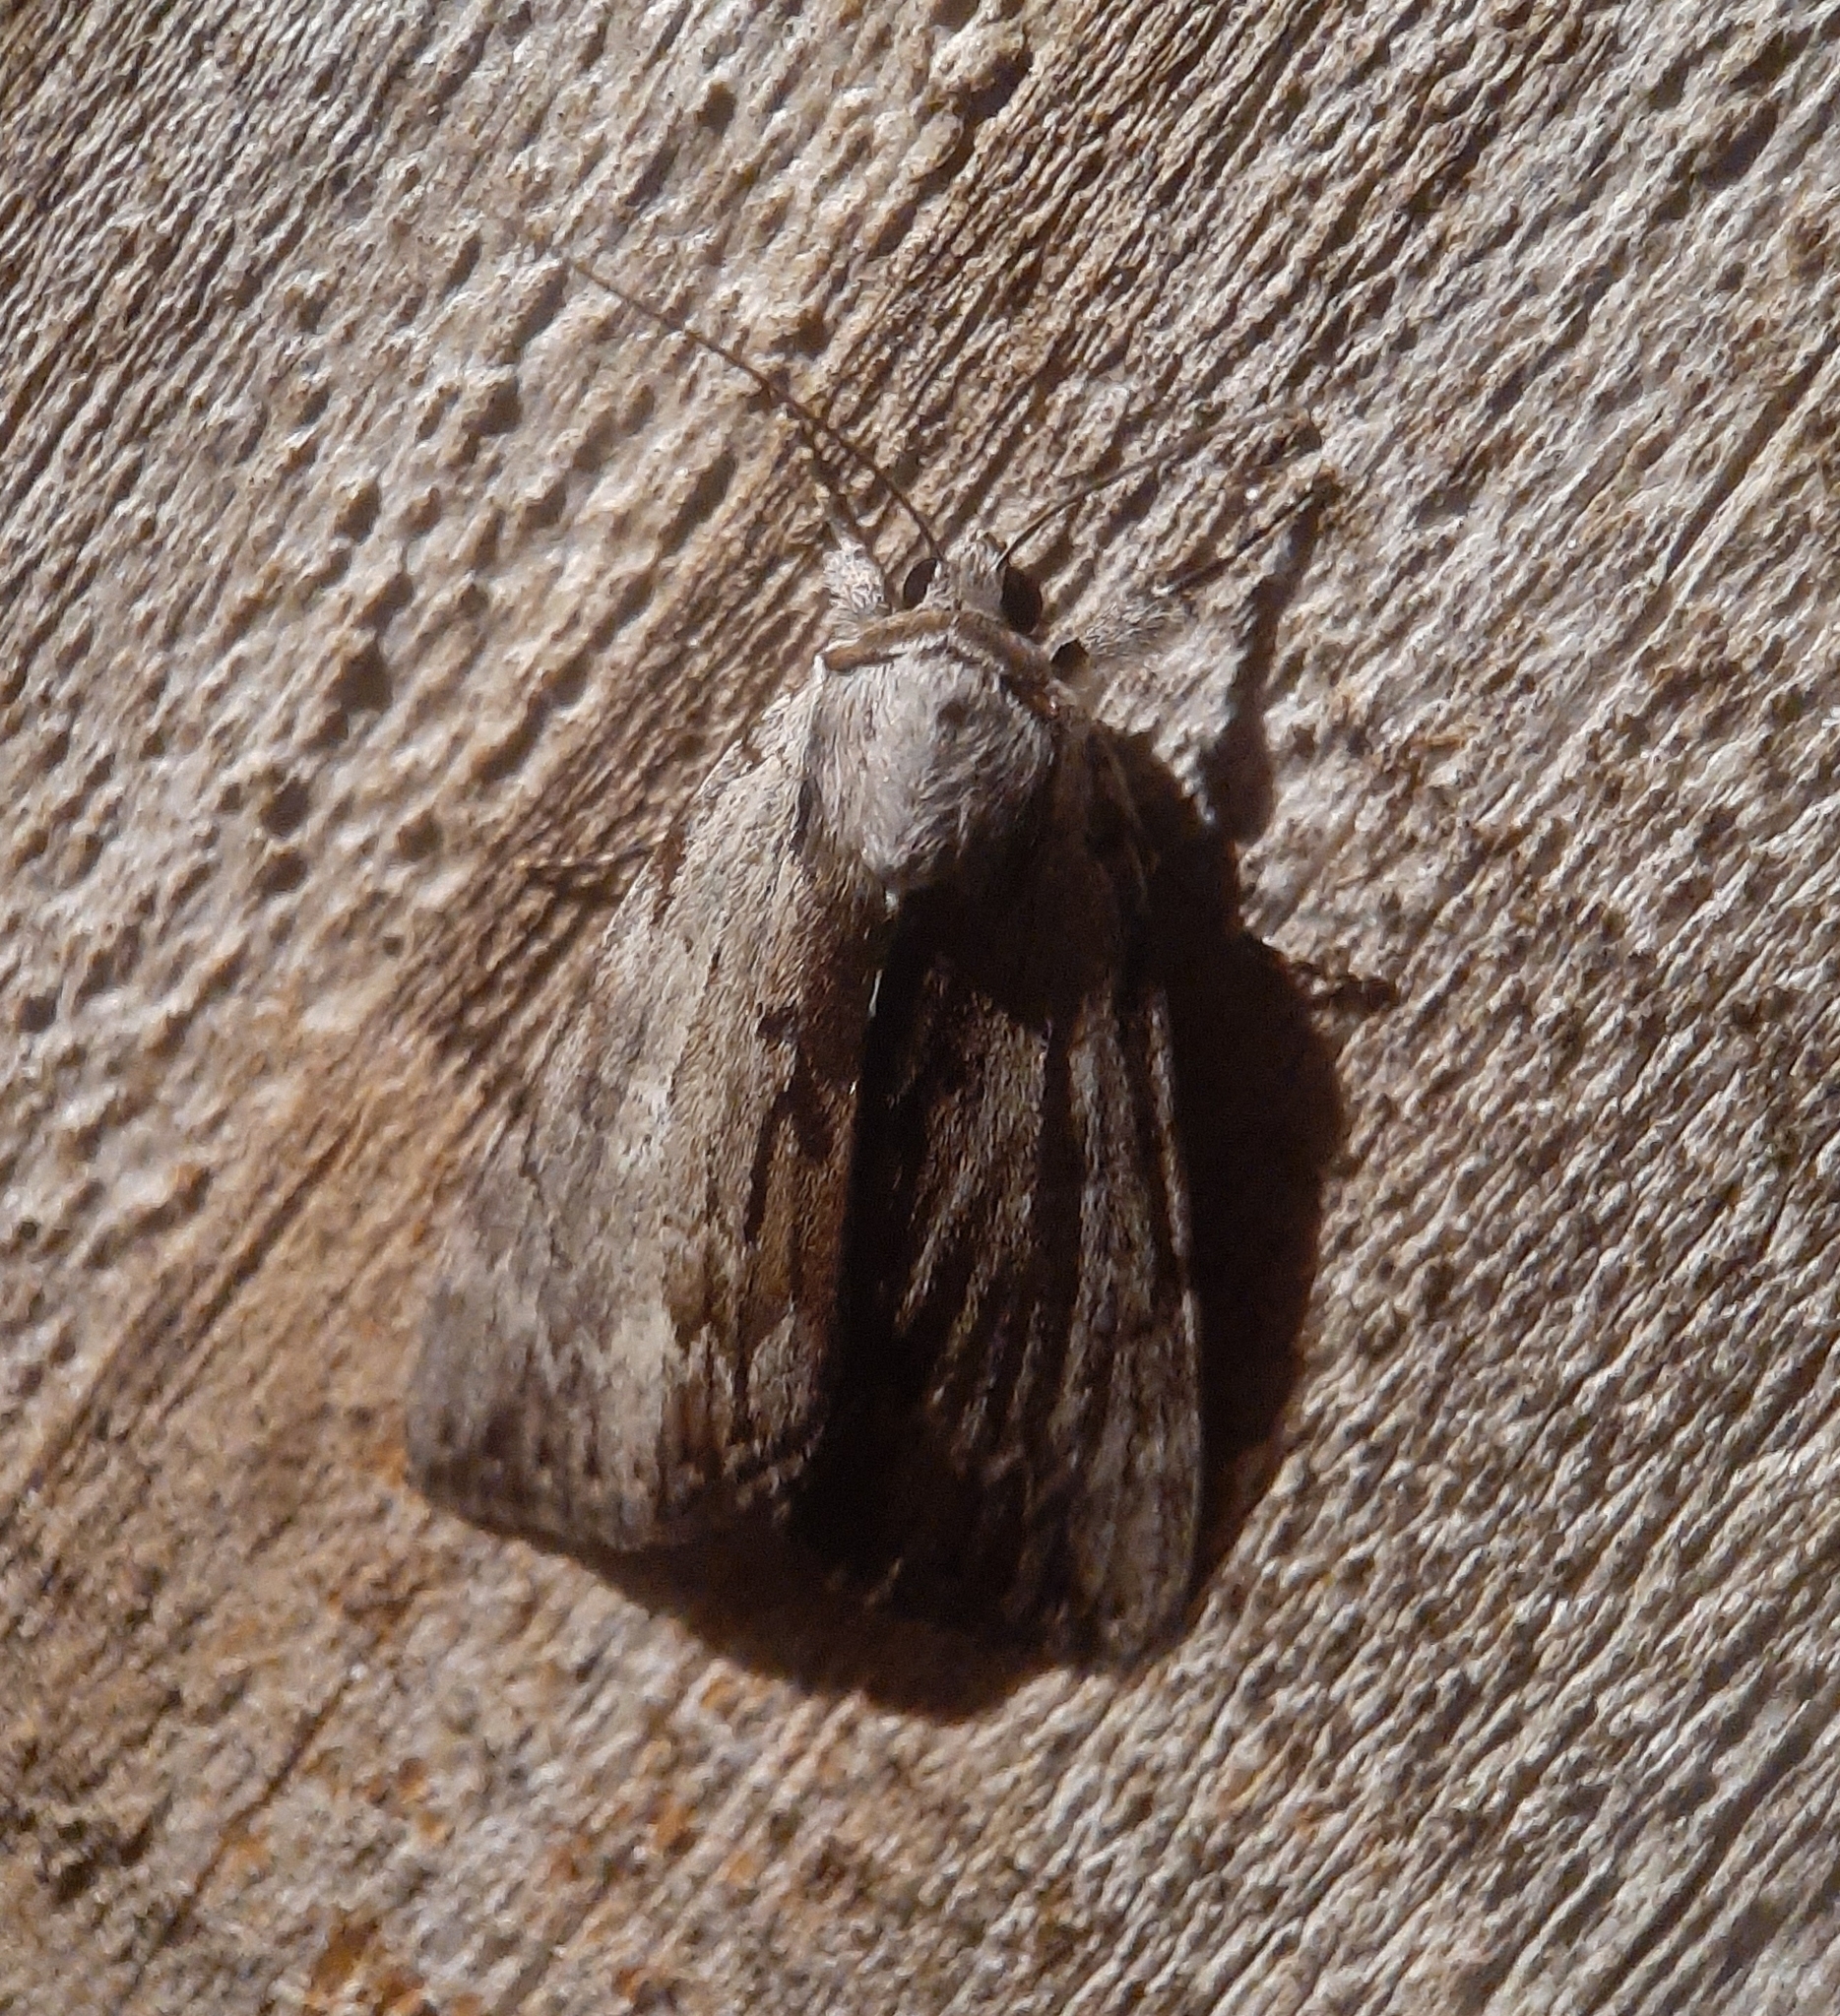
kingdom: Animalia
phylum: Arthropoda
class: Insecta
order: Lepidoptera
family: Erebidae
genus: Catocala
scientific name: Catocala gracilis
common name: Graceful underwing
